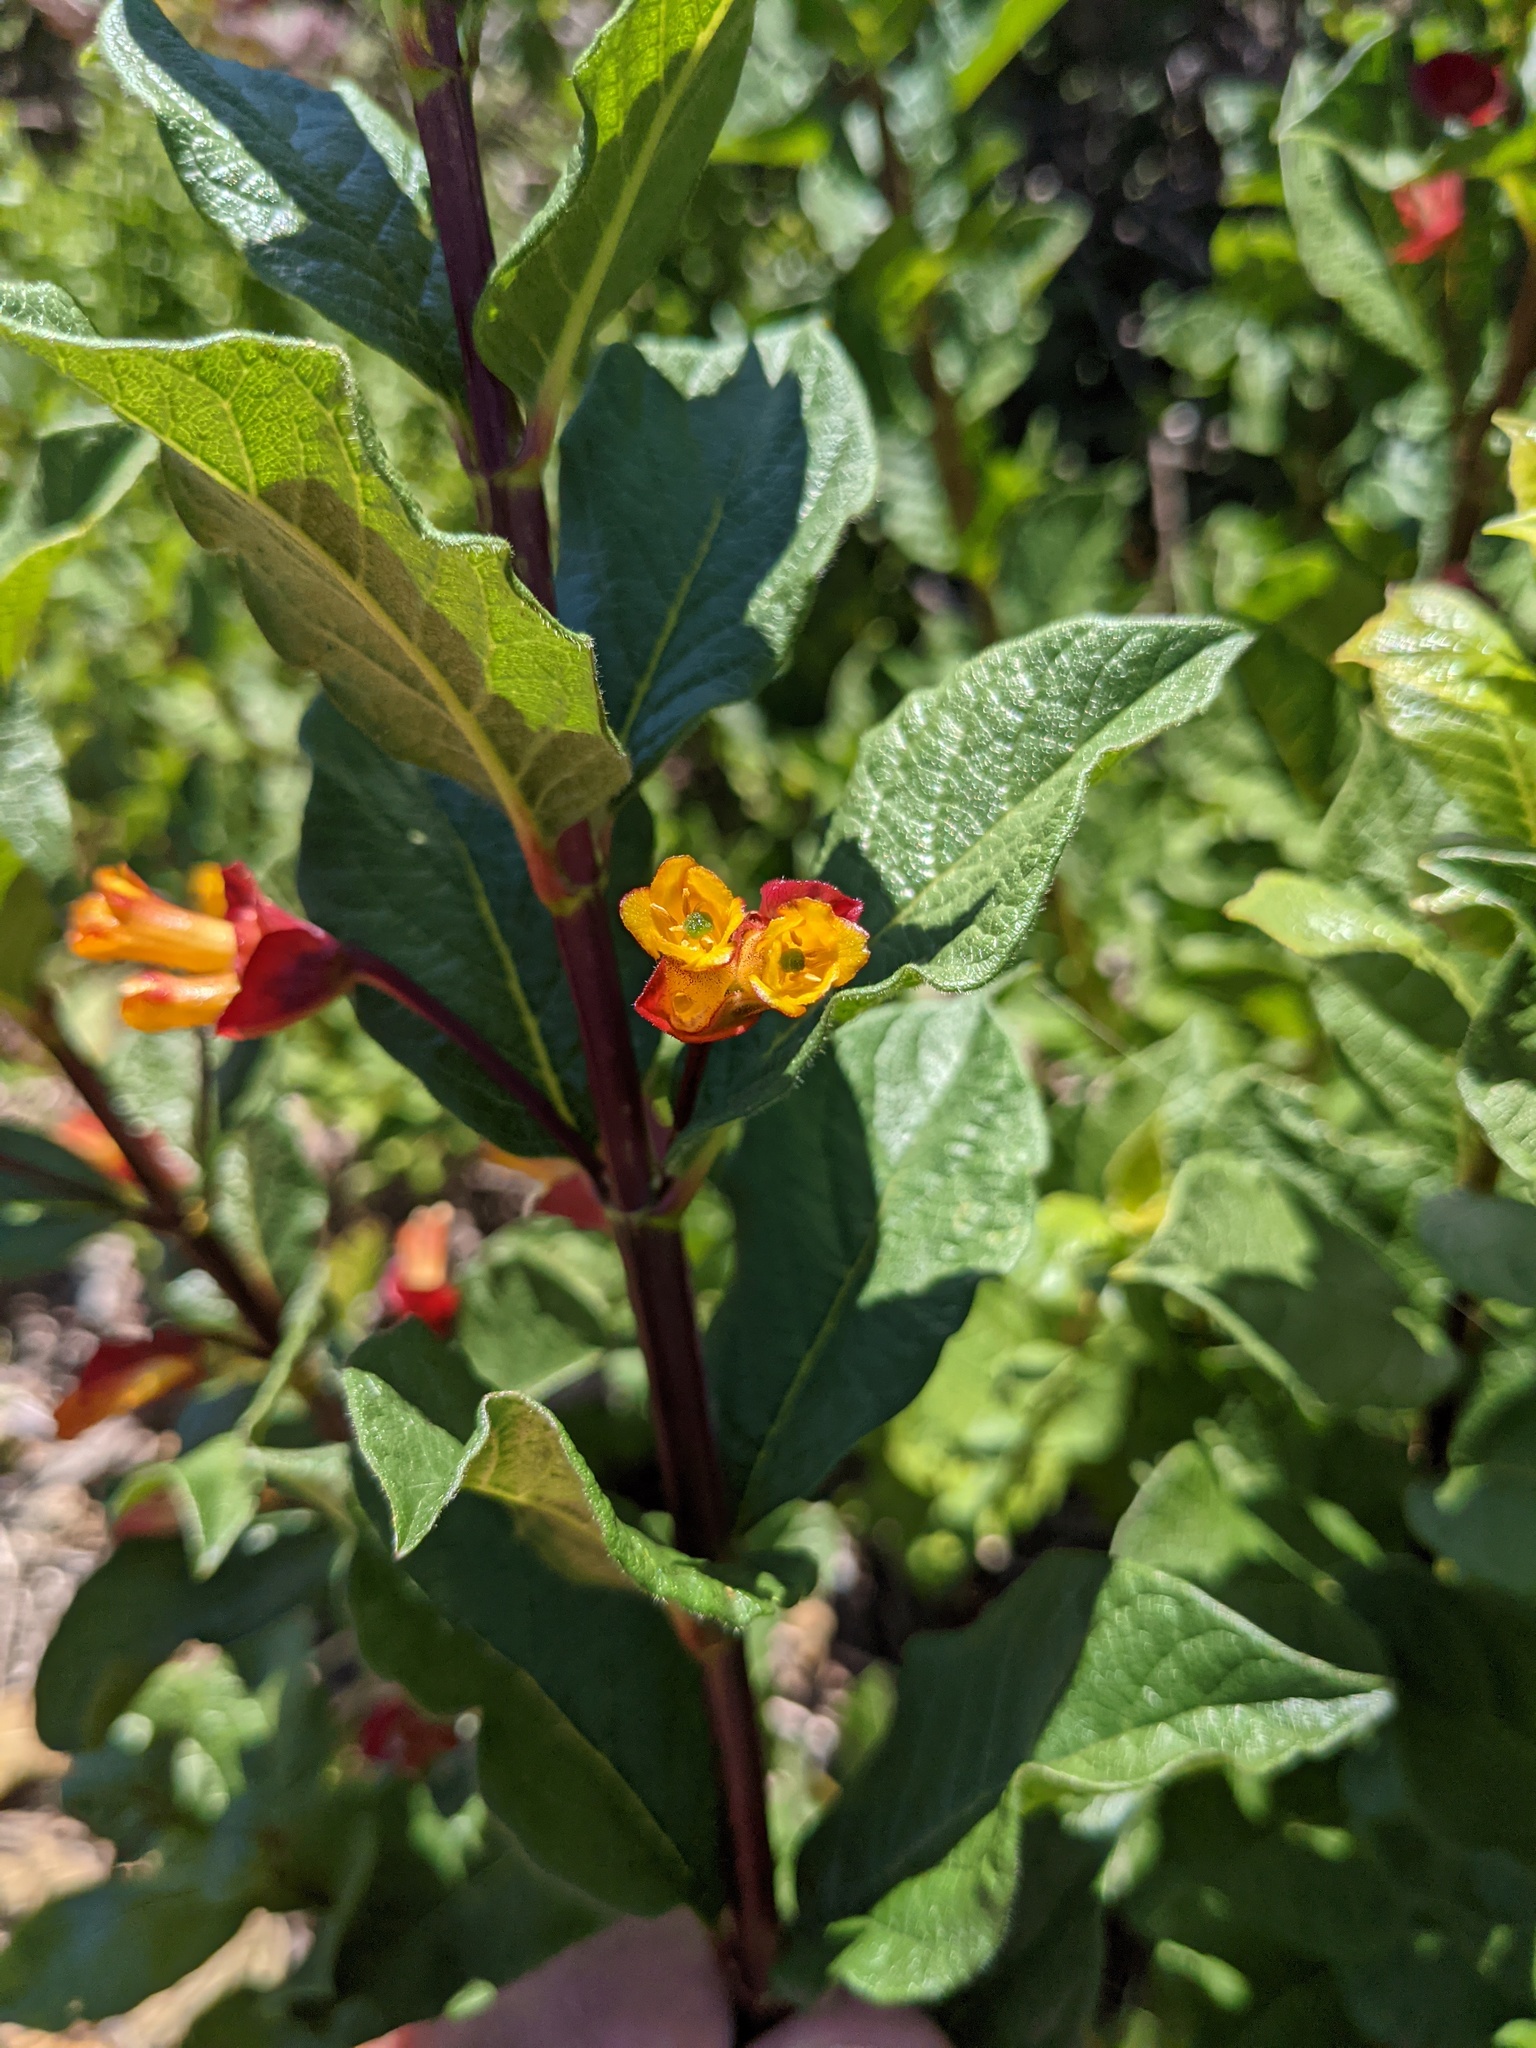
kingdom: Plantae
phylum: Tracheophyta
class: Magnoliopsida
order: Dipsacales
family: Caprifoliaceae
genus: Lonicera
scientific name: Lonicera involucrata
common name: Californian honeysuckle
